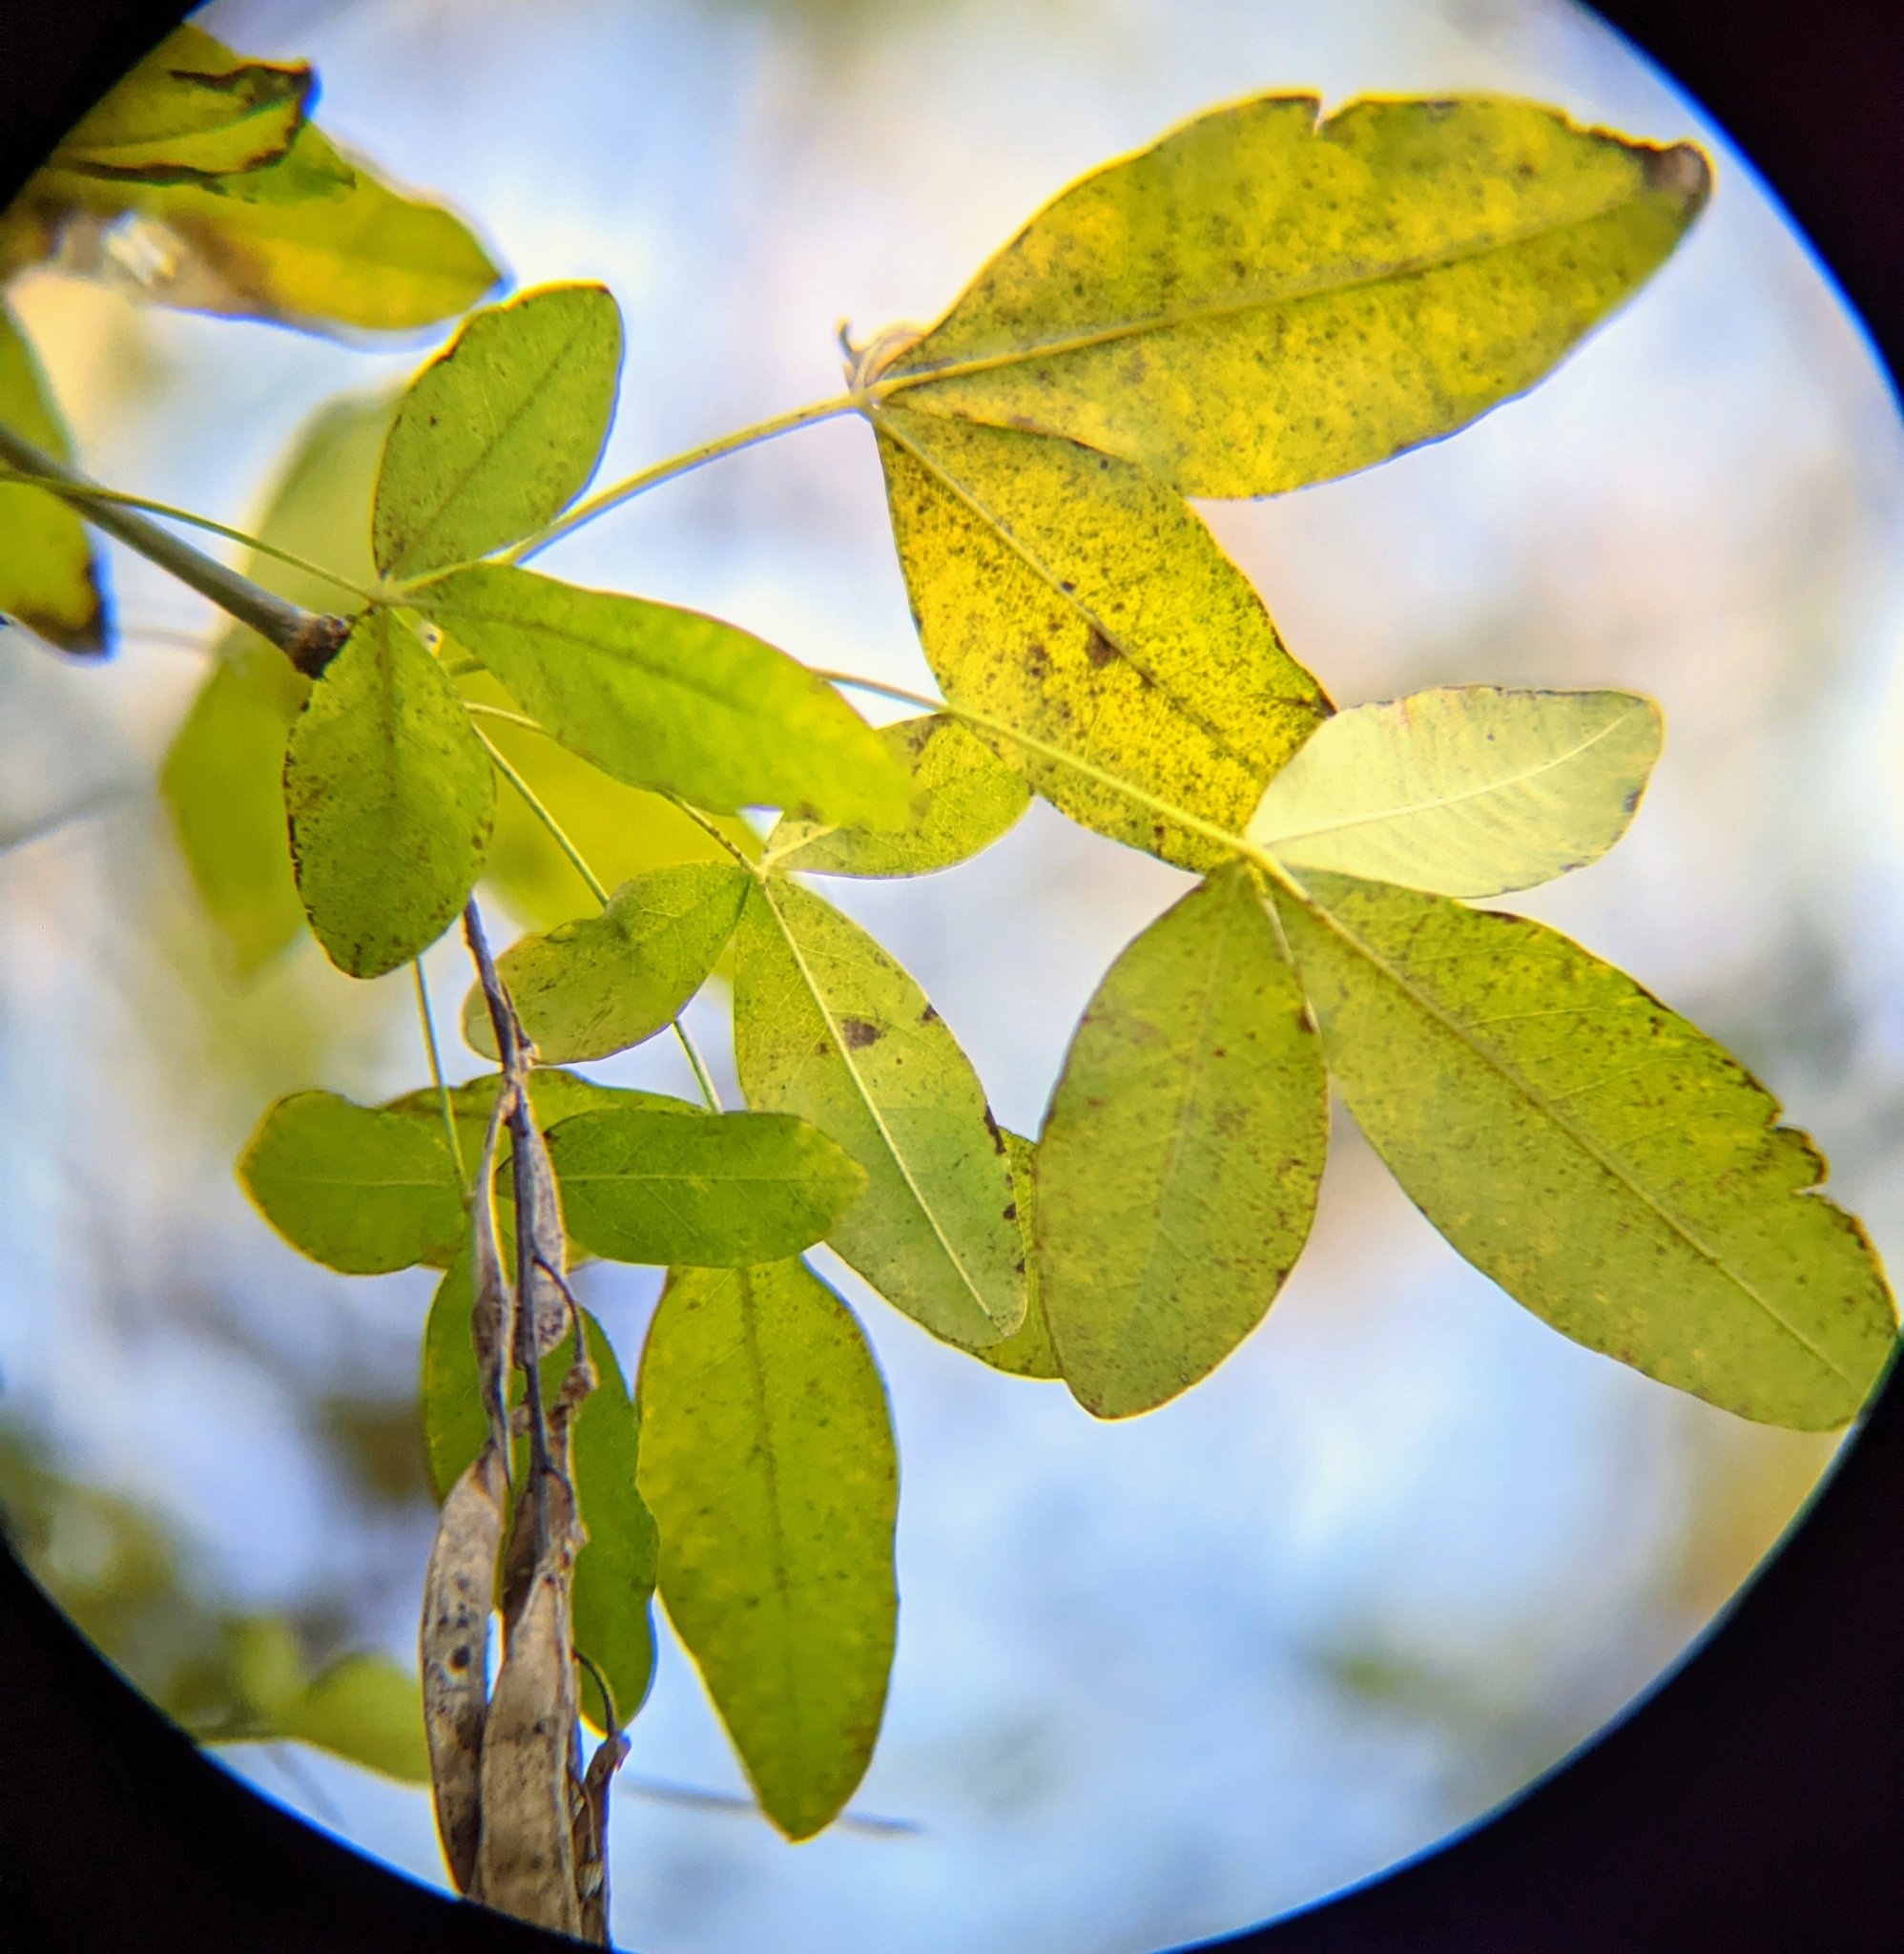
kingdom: Plantae
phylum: Tracheophyta
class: Magnoliopsida
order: Fabales
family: Fabaceae
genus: Laburnum
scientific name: Laburnum anagyroides
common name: Laburnum
